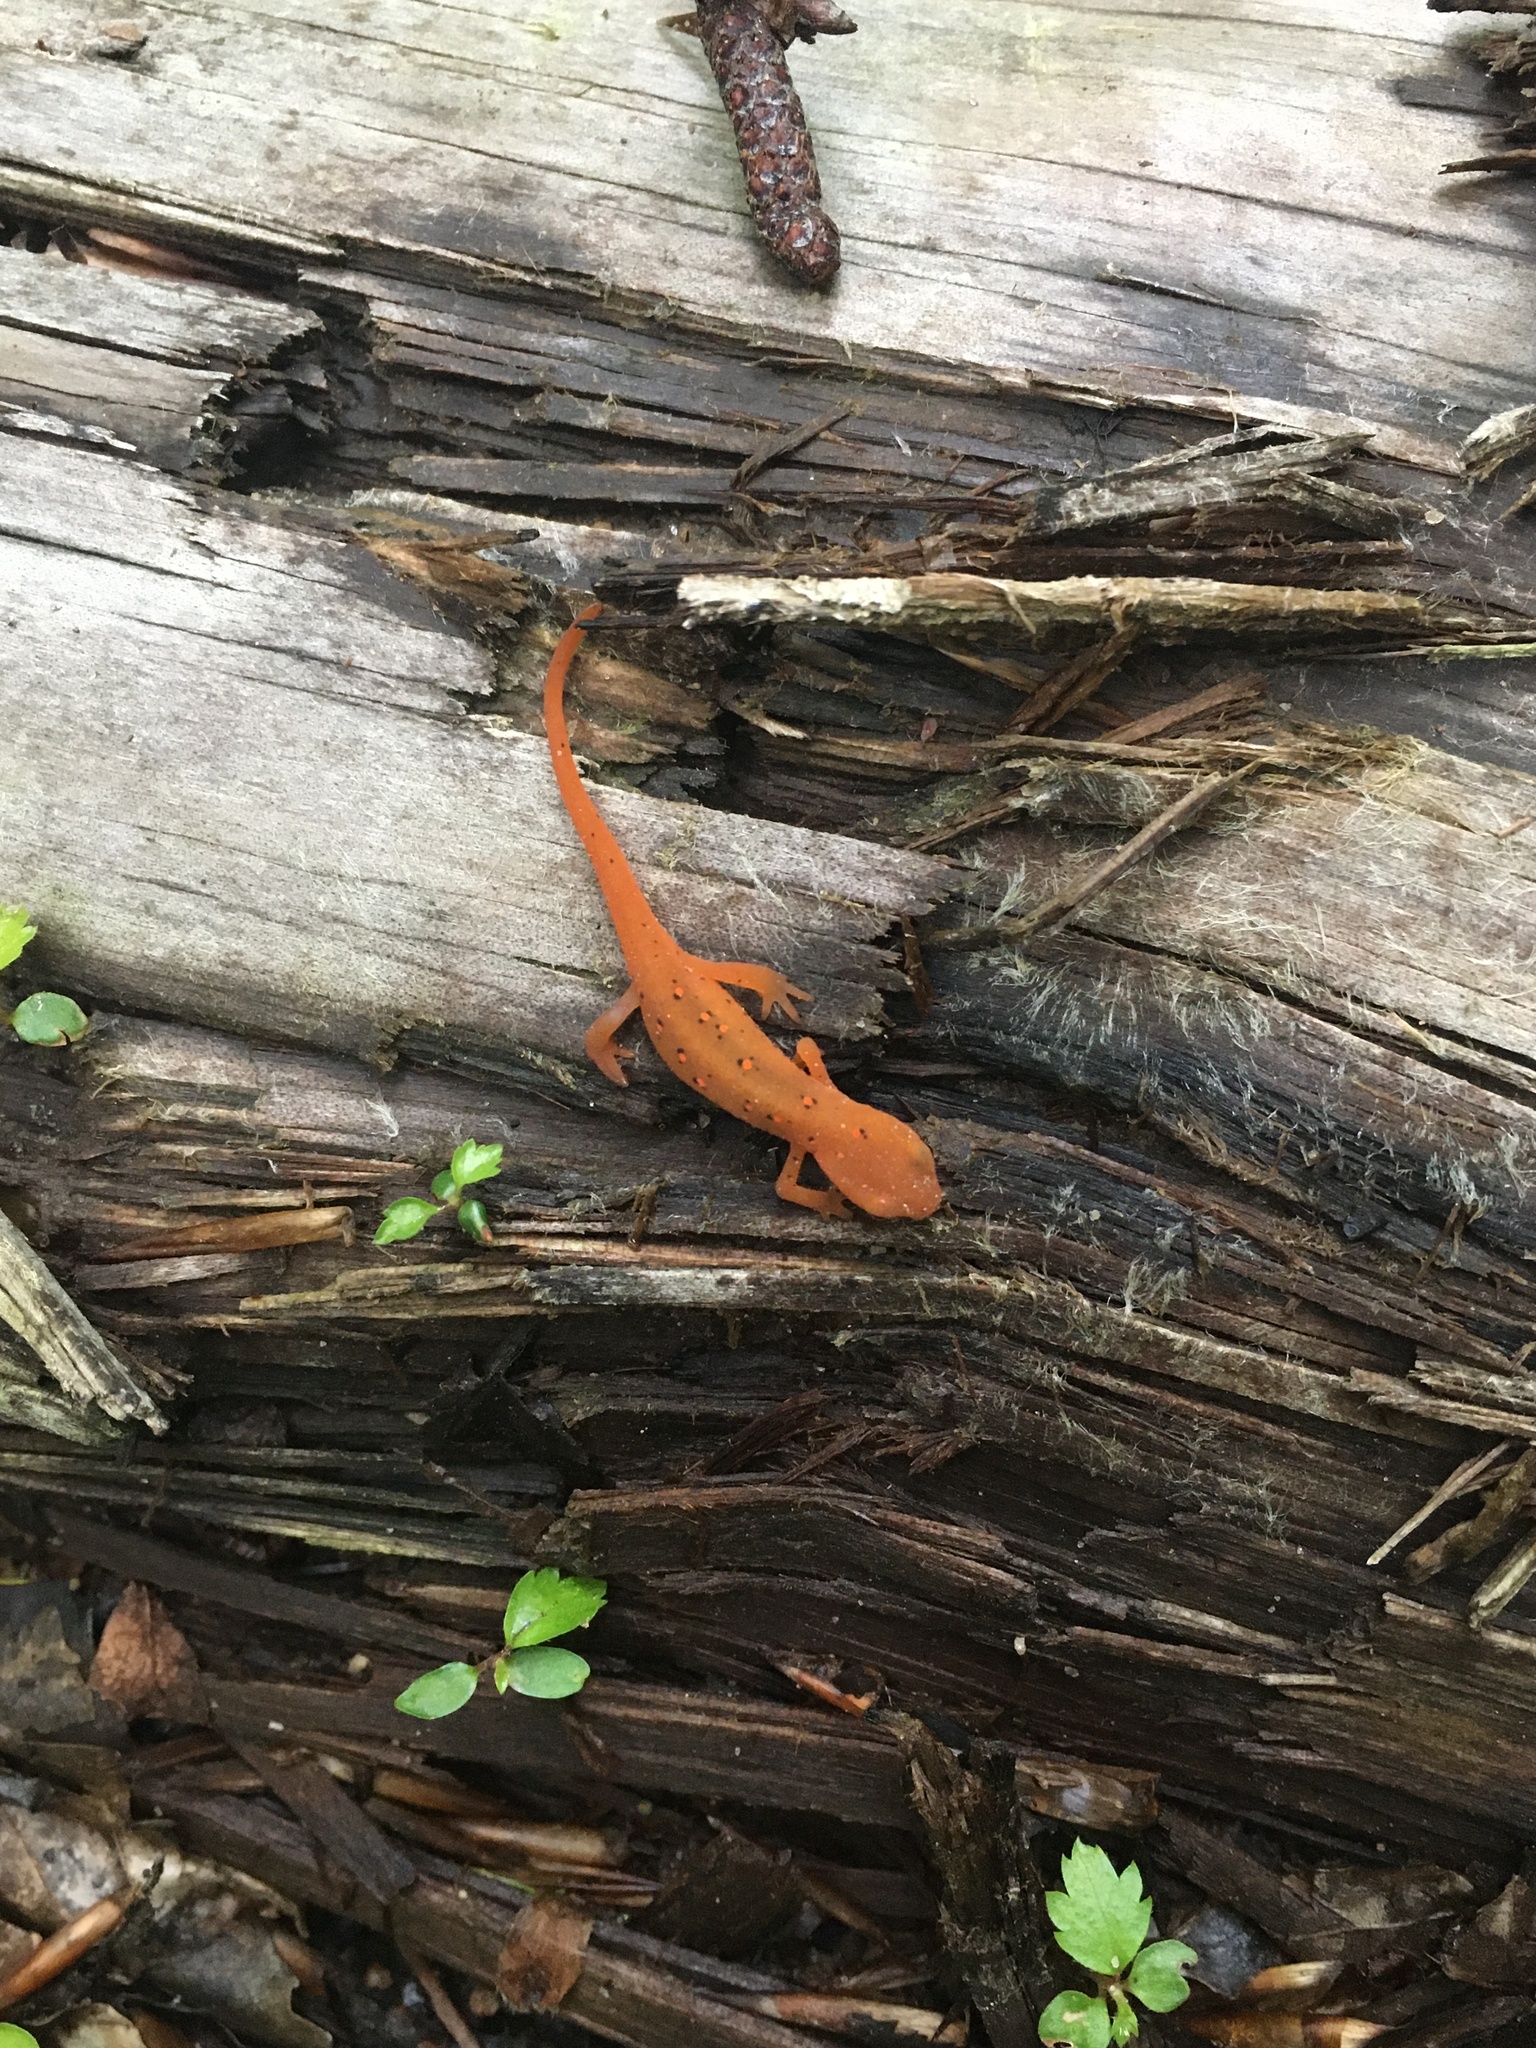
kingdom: Animalia
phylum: Chordata
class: Amphibia
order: Caudata
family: Salamandridae
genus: Notophthalmus
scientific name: Notophthalmus viridescens
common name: Eastern newt
